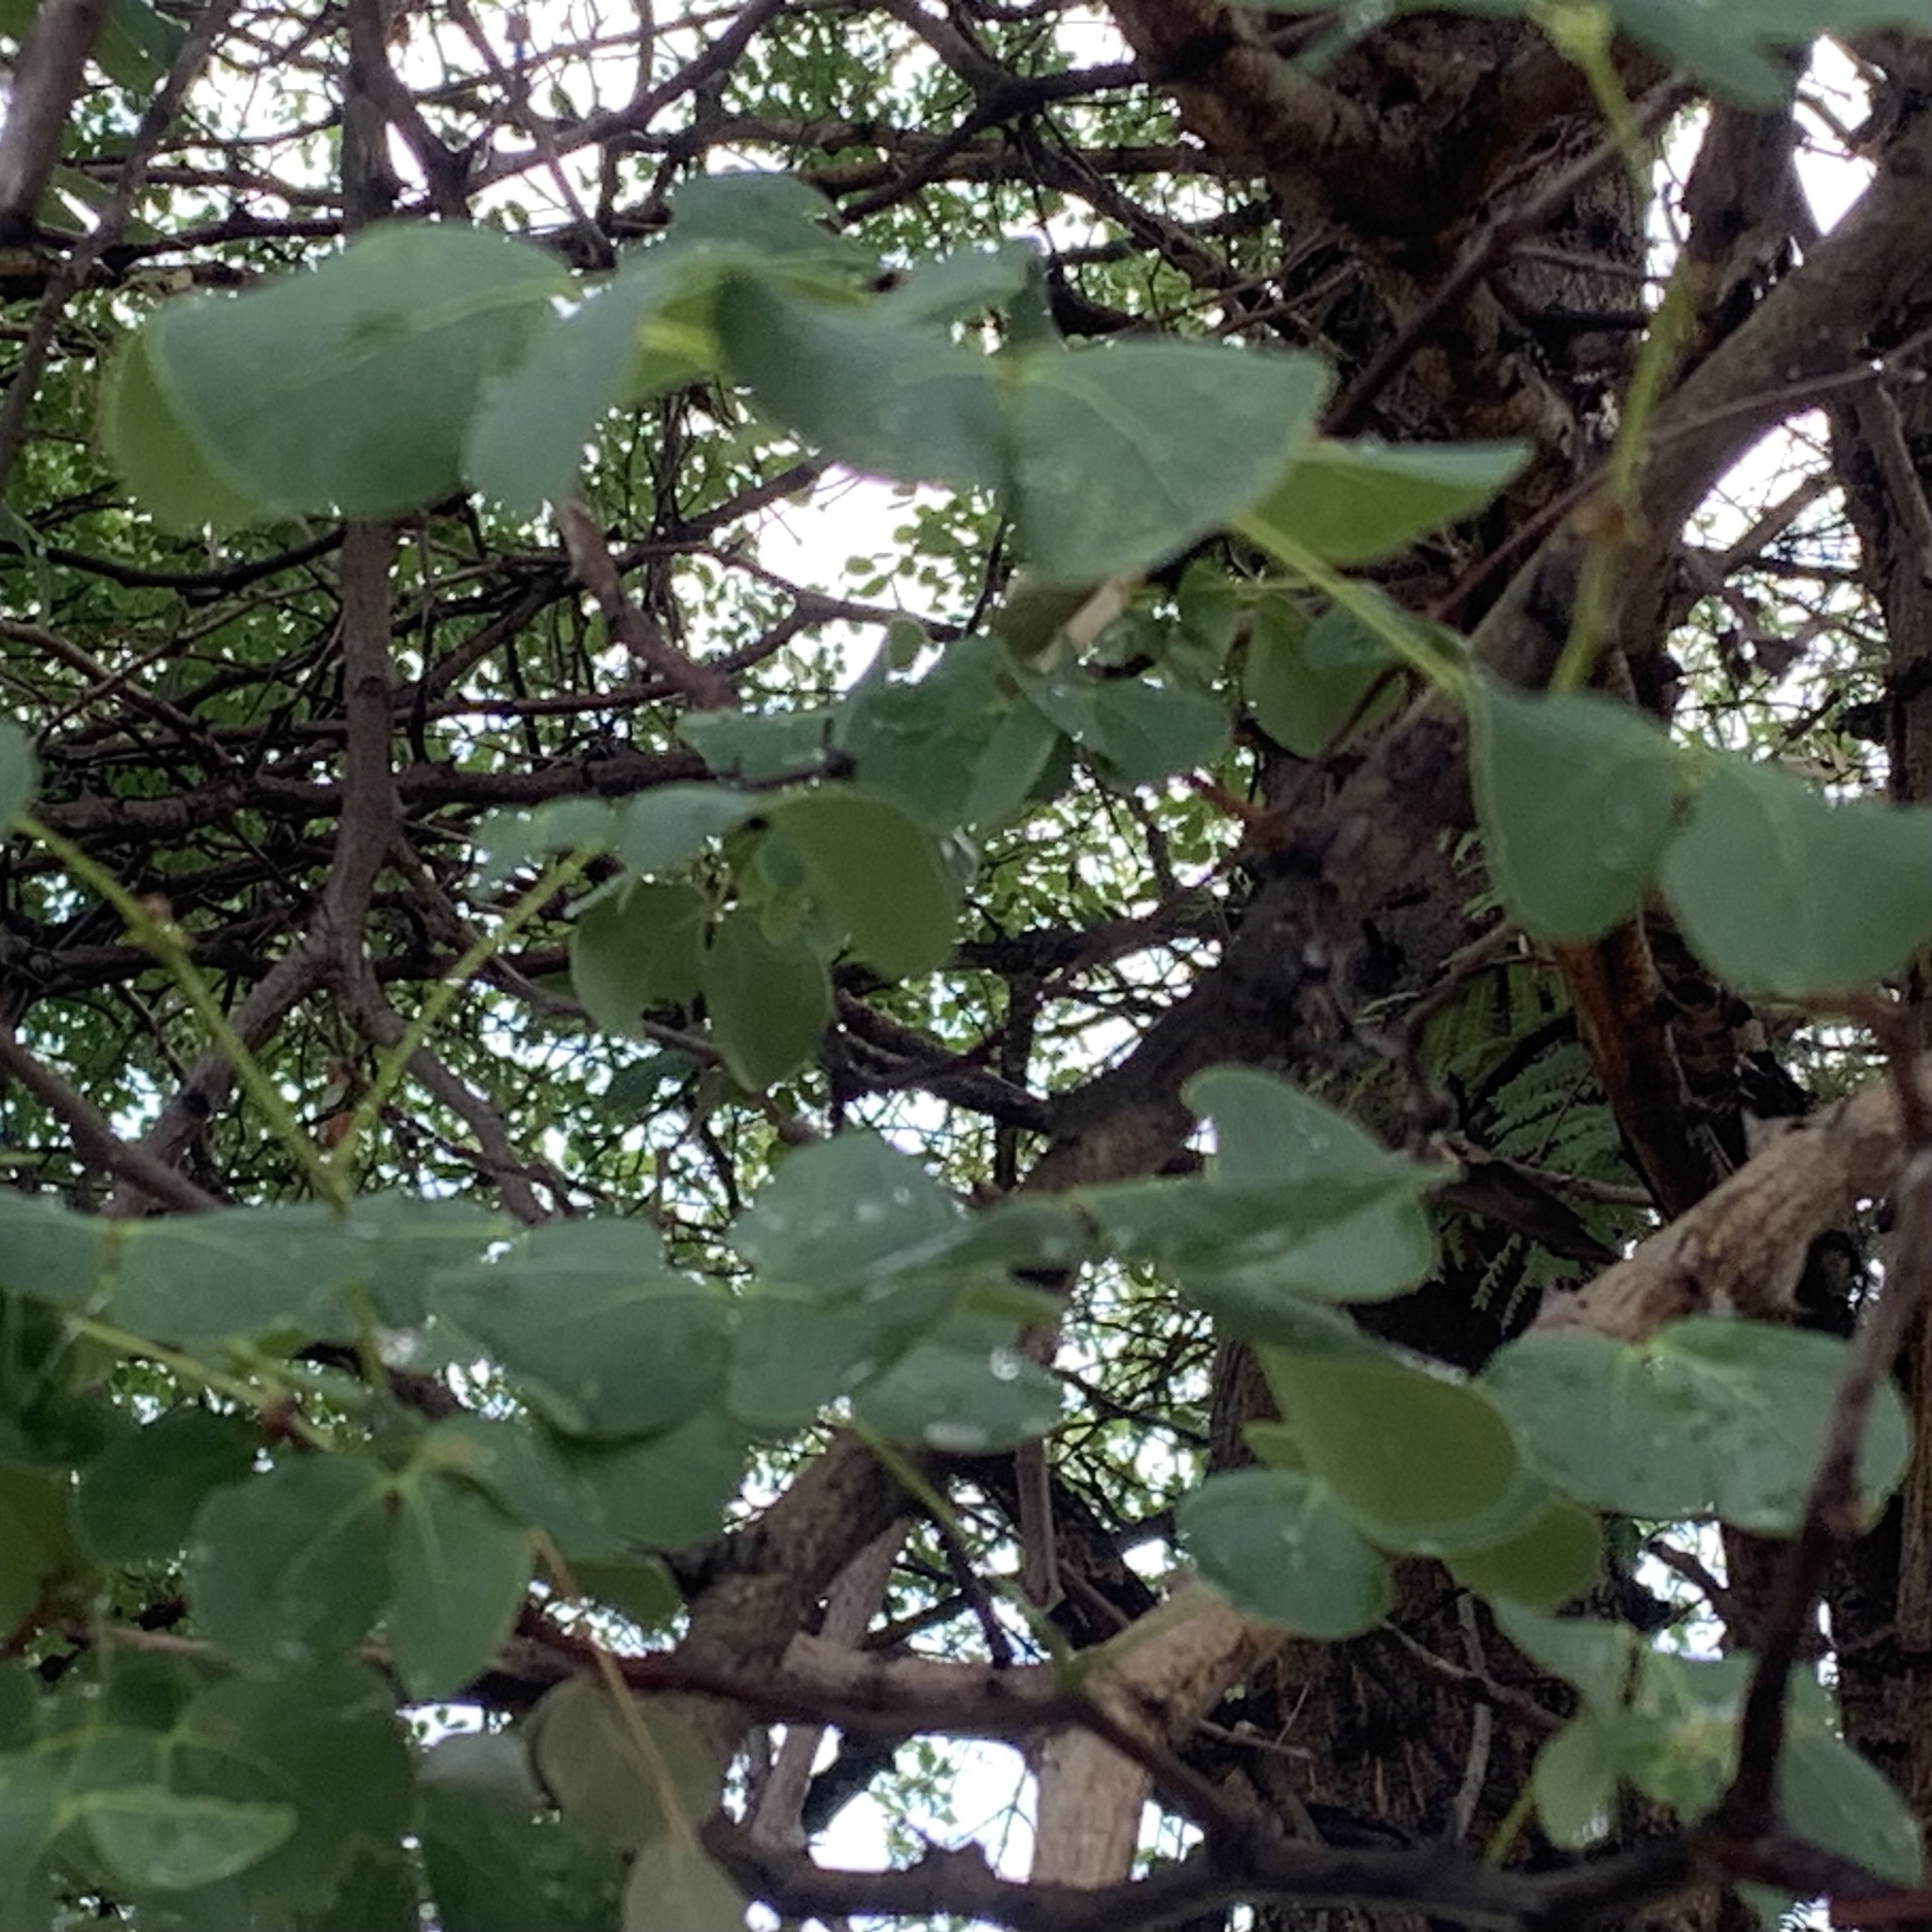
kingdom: Plantae
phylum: Tracheophyta
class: Magnoliopsida
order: Fabales
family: Fabaceae
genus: Senegalia
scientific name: Senegalia nigrescens
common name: Knobthorn
